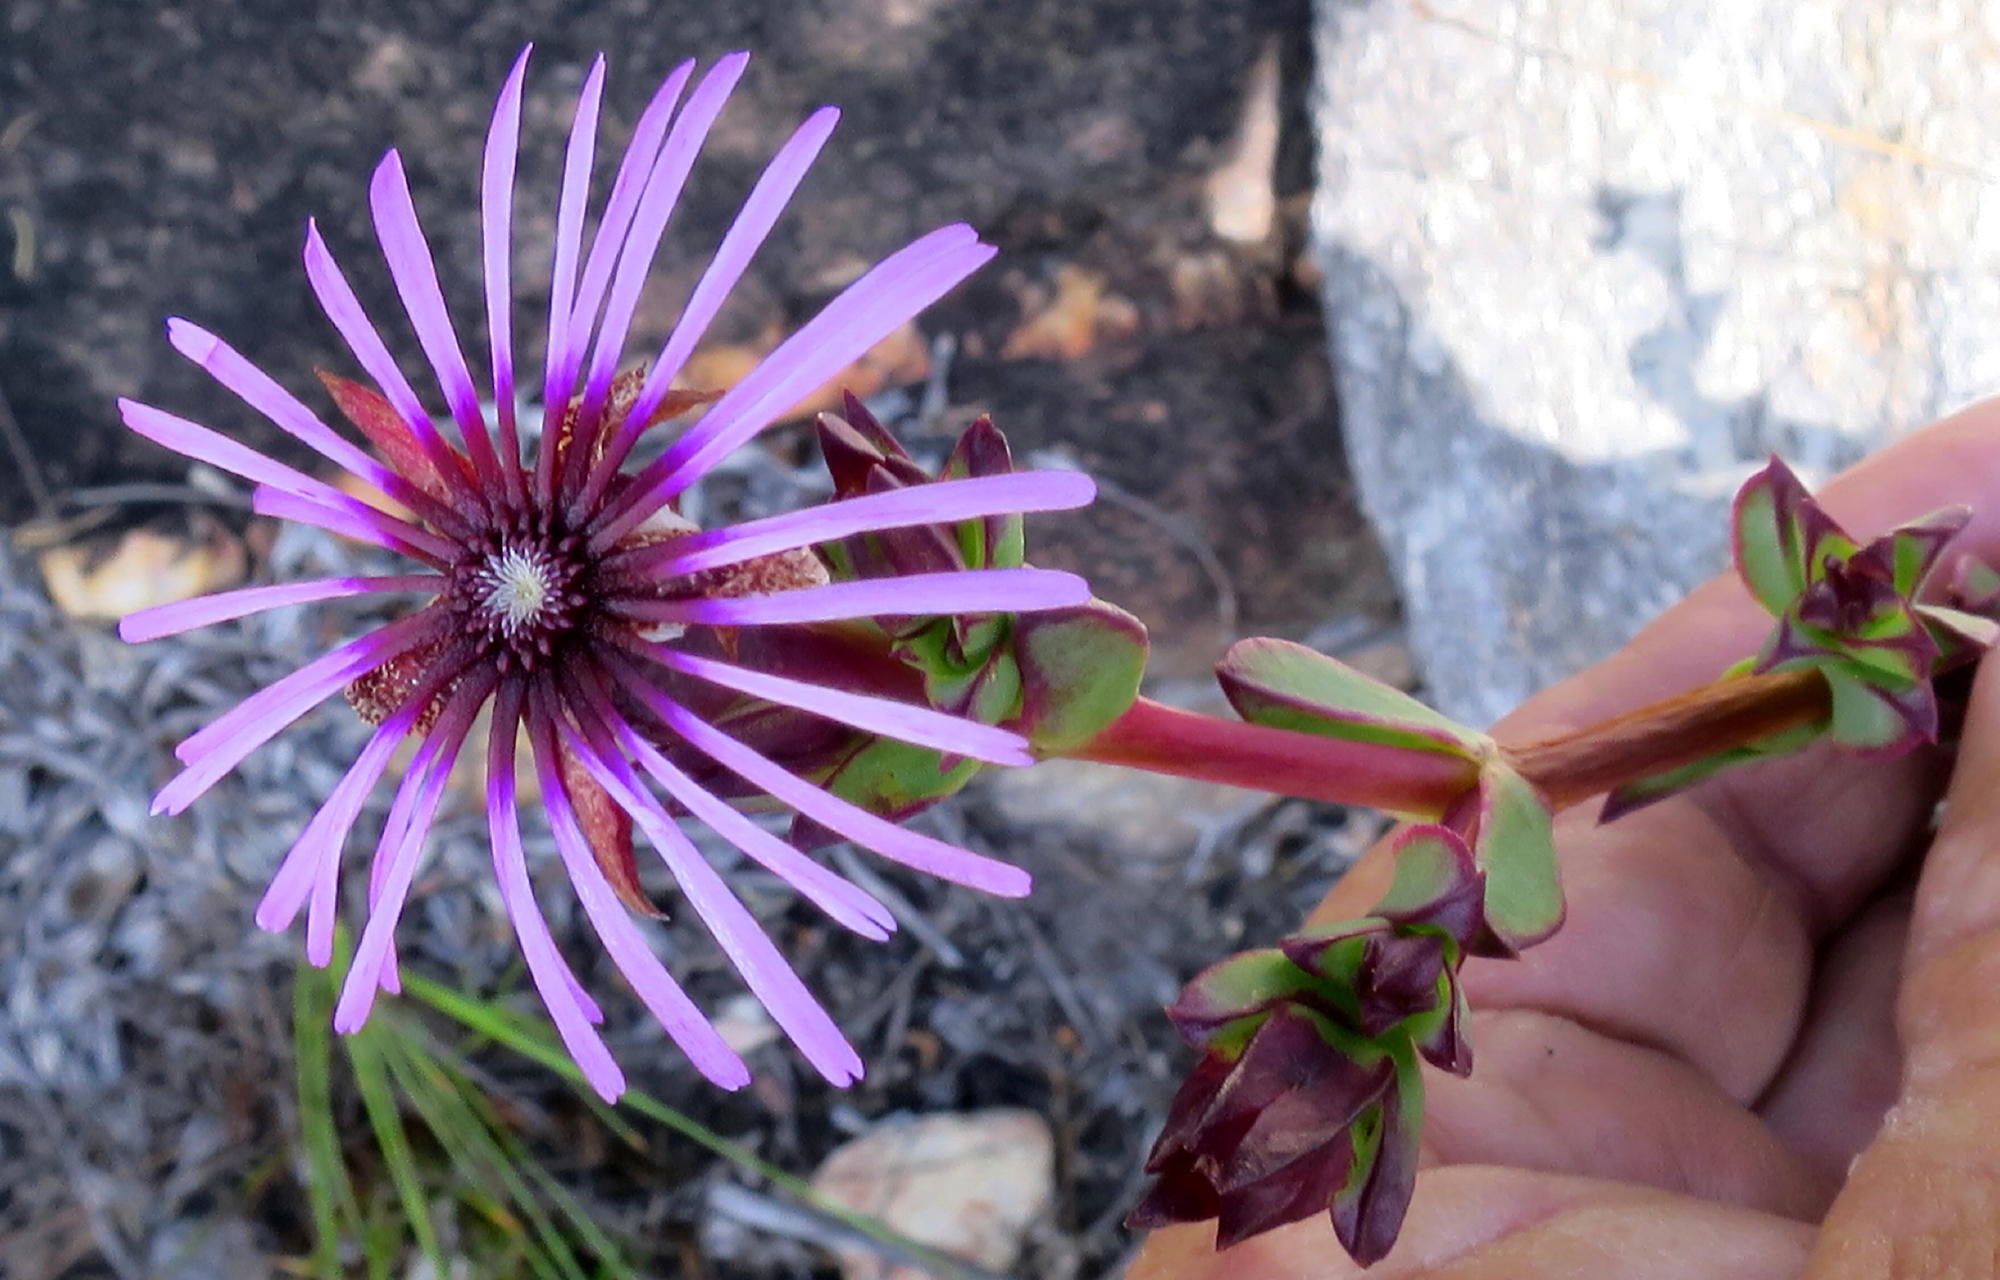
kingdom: Plantae
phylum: Tracheophyta
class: Magnoliopsida
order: Caryophyllales
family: Aizoaceae
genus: Erepsia
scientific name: Erepsia pentagona
